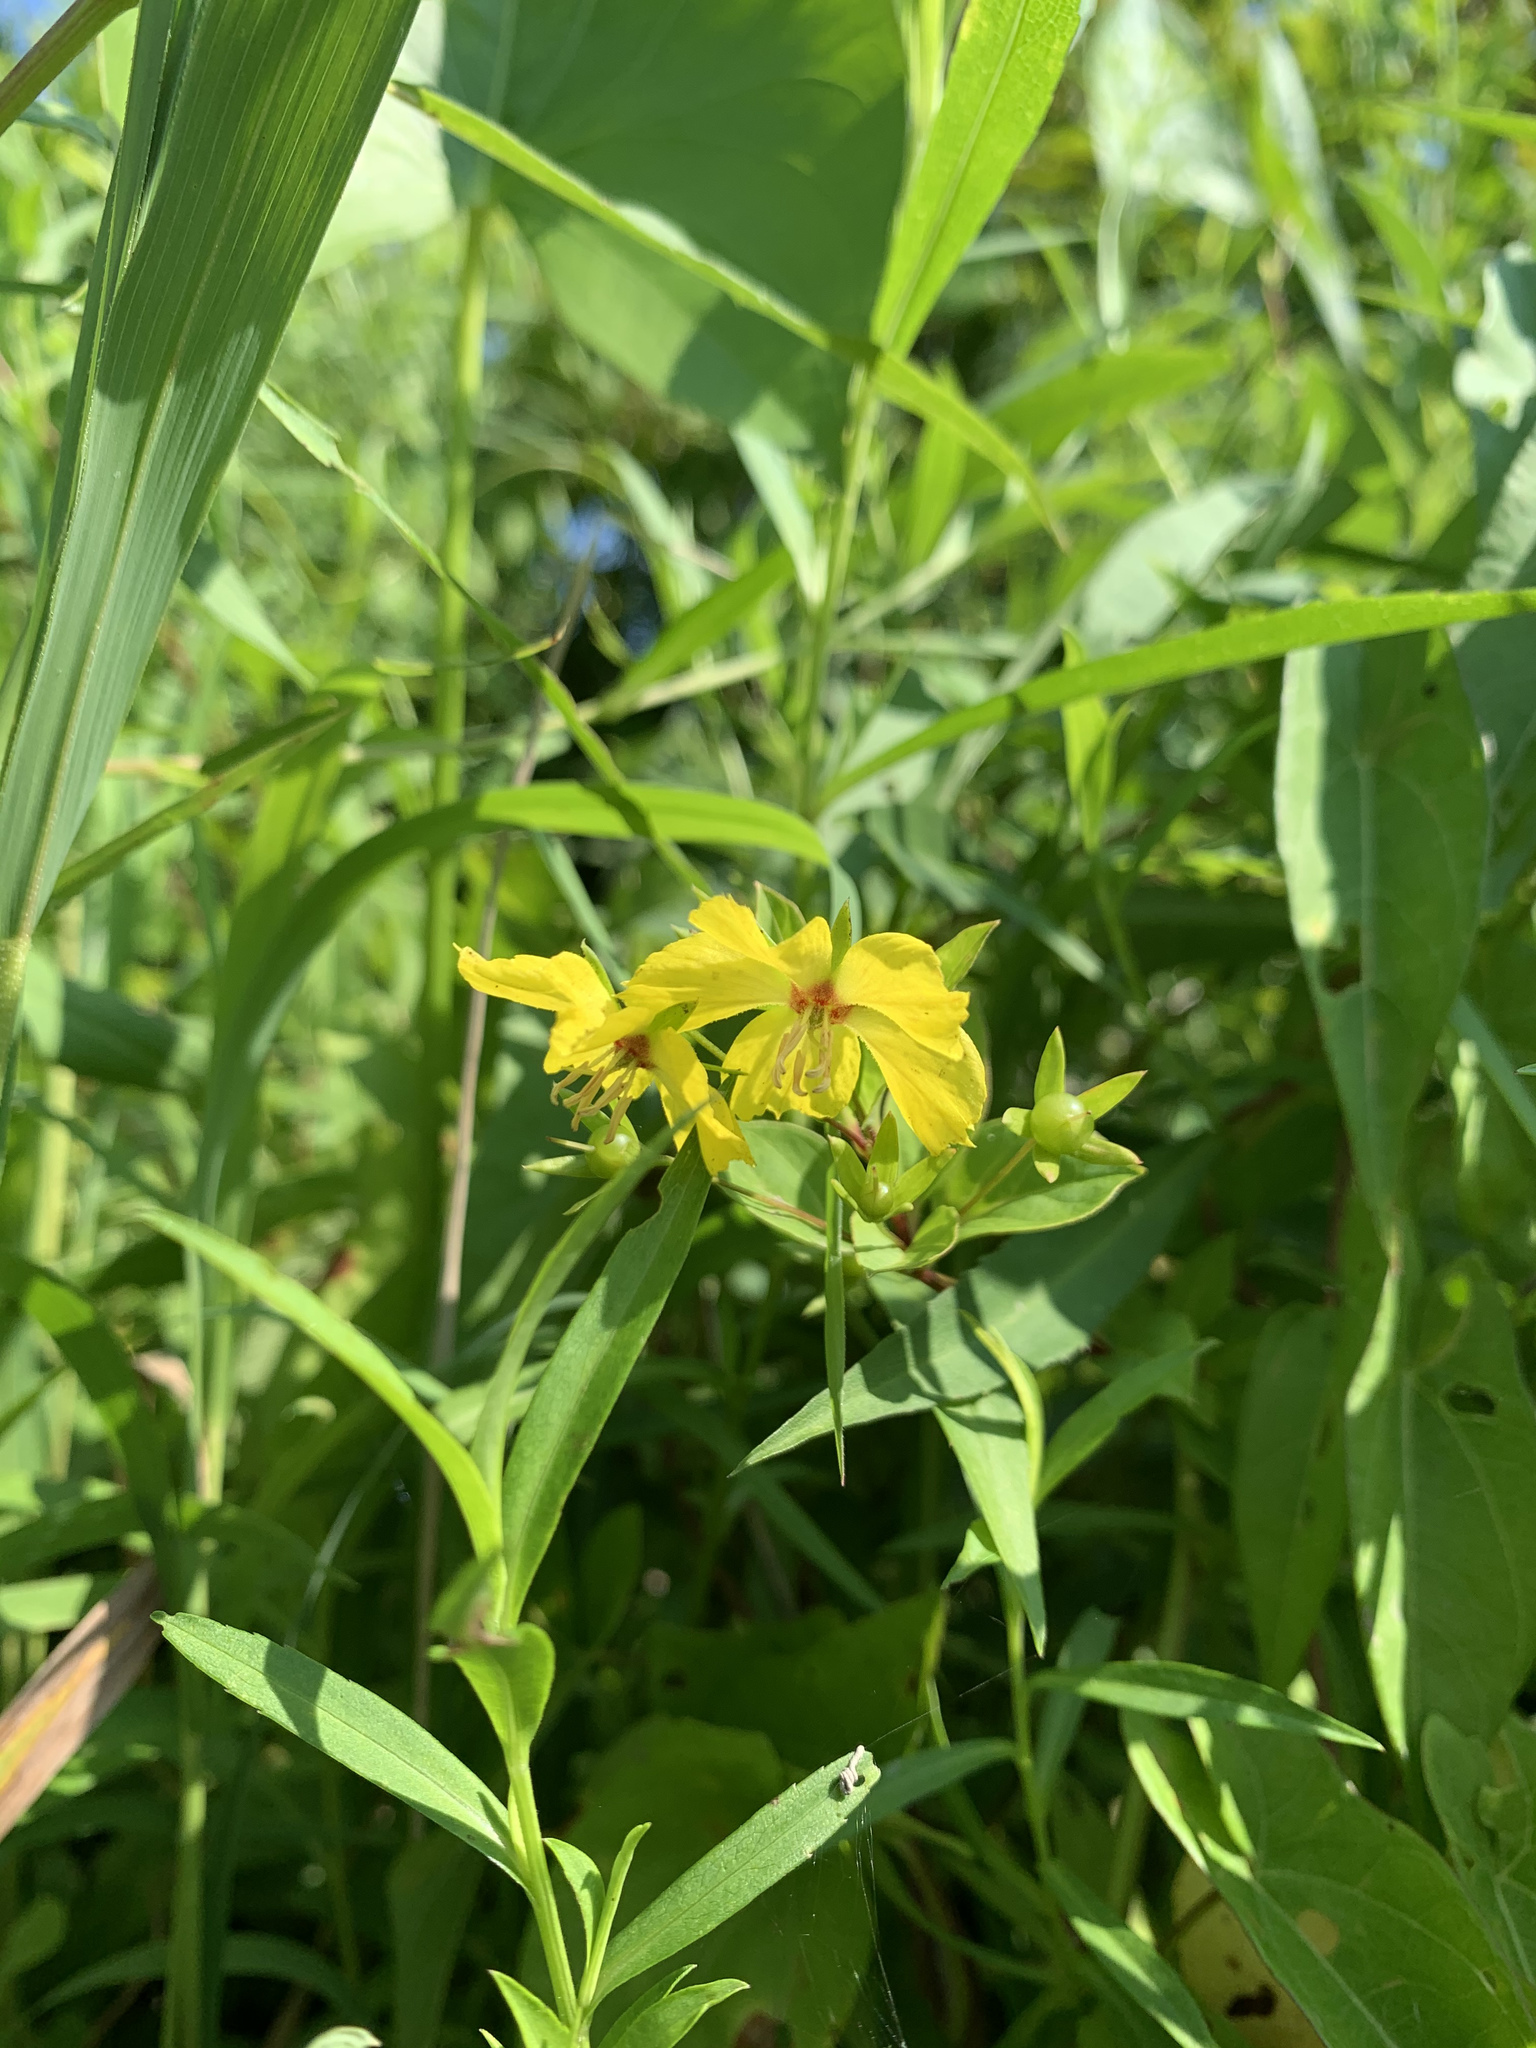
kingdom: Plantae
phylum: Tracheophyta
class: Magnoliopsida
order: Ericales
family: Primulaceae
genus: Lysimachia
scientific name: Lysimachia ciliata
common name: Fringed loosestrife
